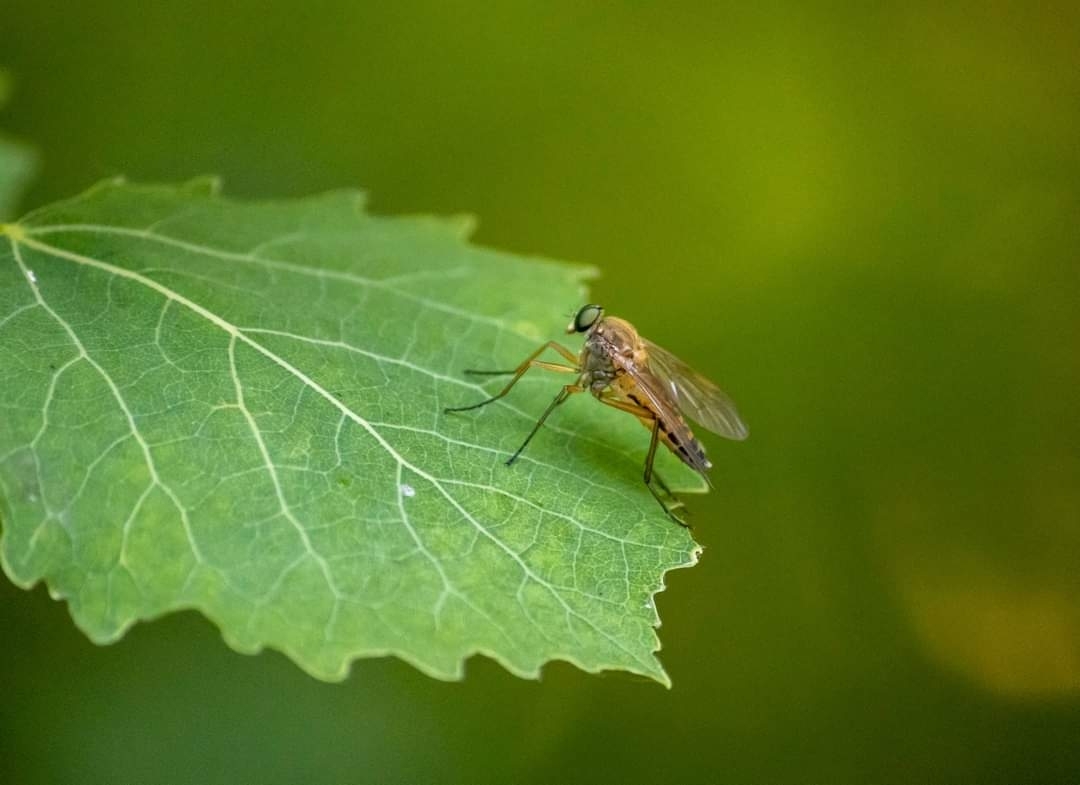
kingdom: Animalia
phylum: Arthropoda
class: Insecta
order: Diptera
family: Rhagionidae
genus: Rhagio
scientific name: Rhagio tringaria
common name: Marsh snipefly
